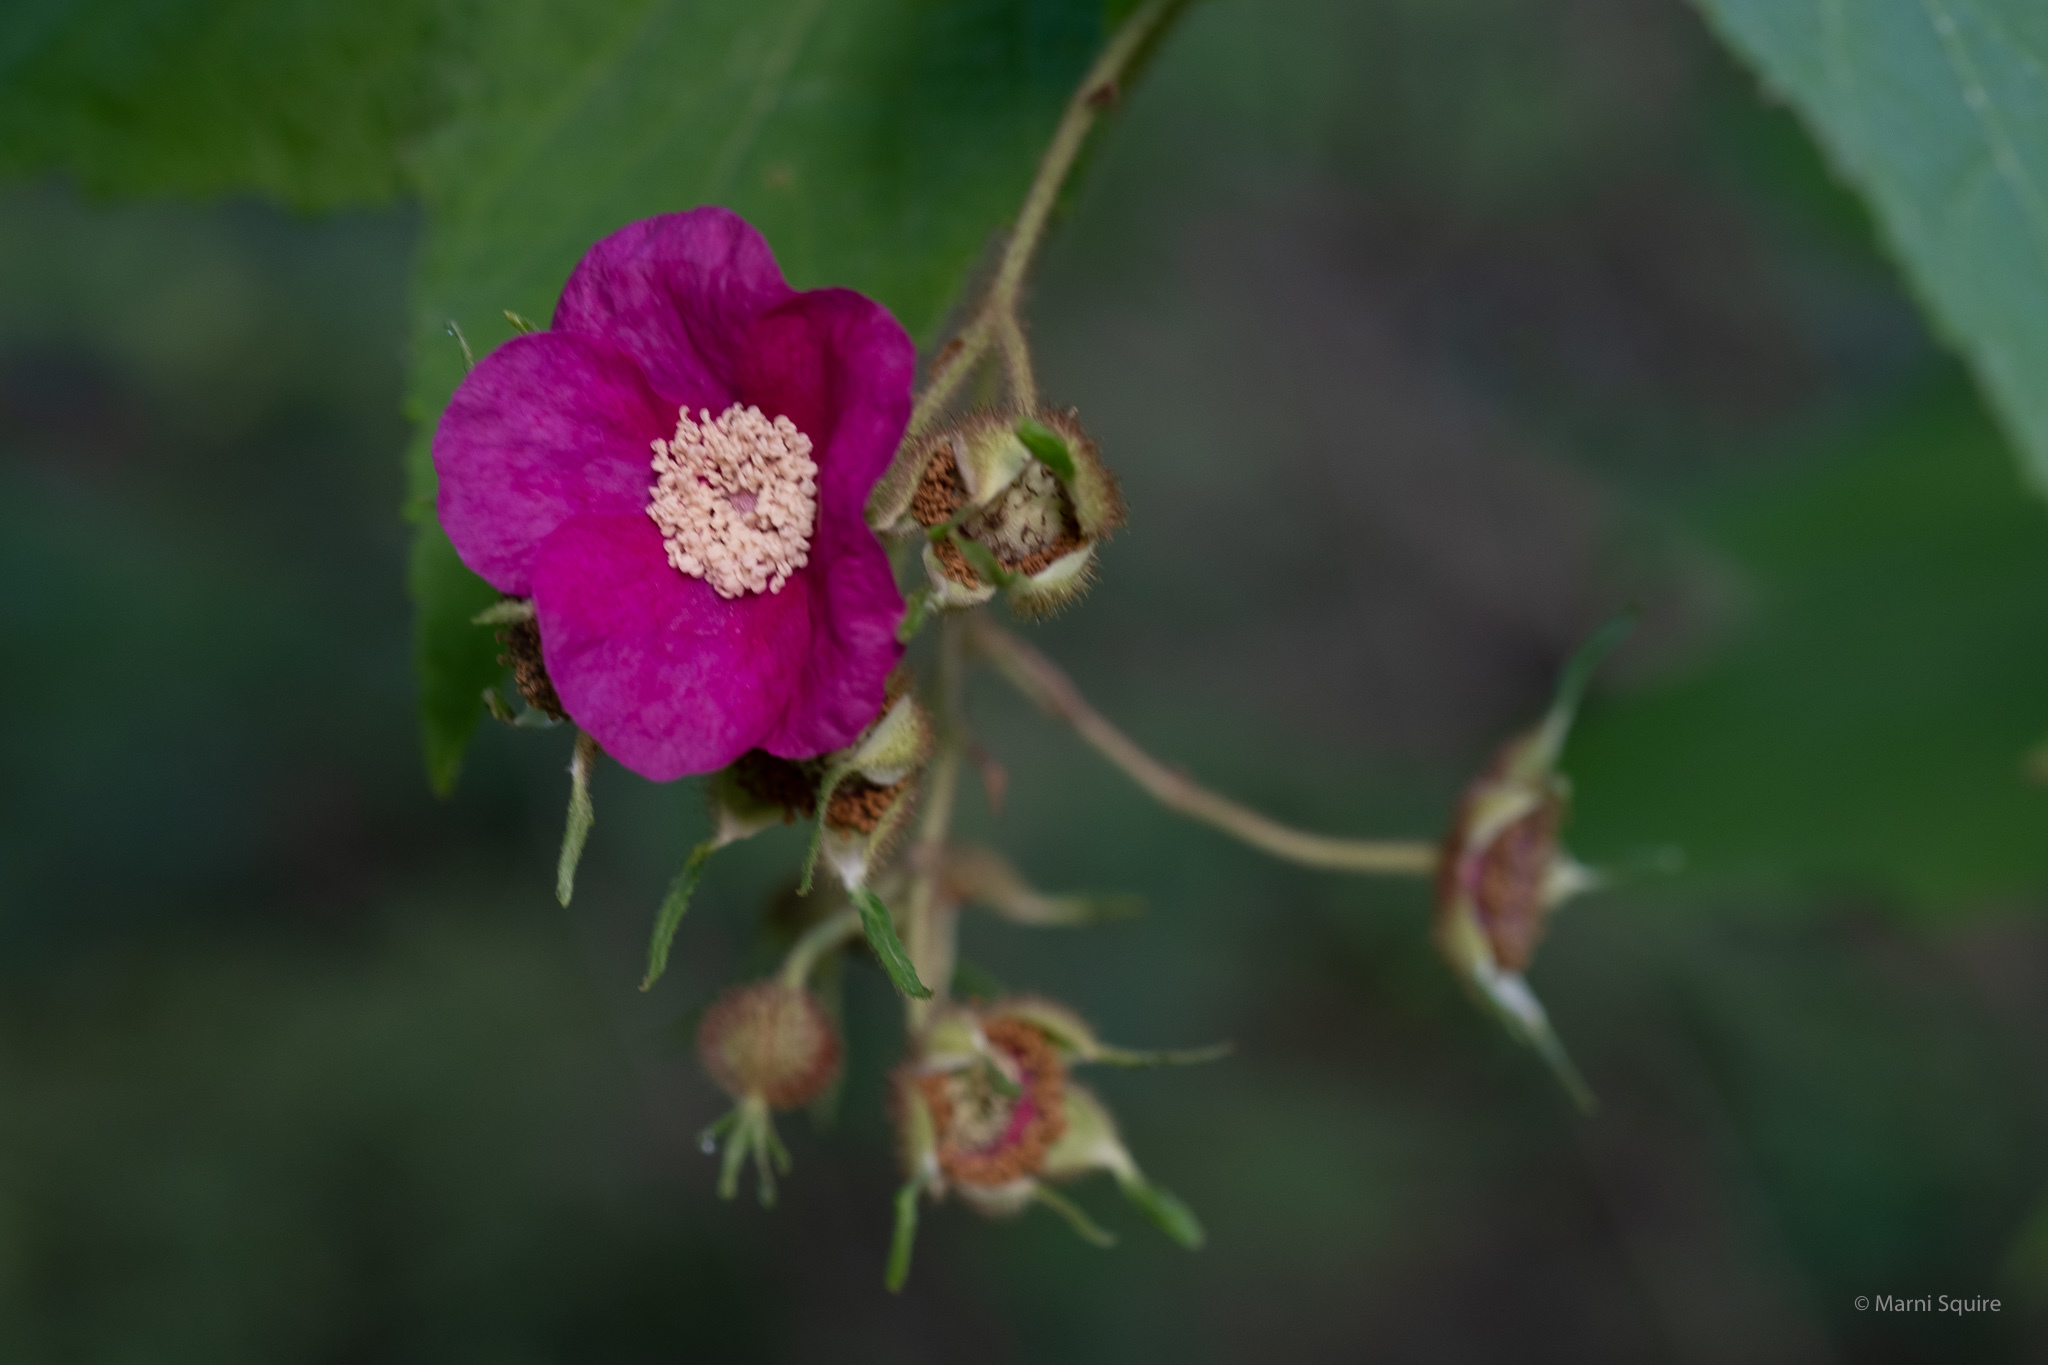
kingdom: Plantae
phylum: Tracheophyta
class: Magnoliopsida
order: Rosales
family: Rosaceae
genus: Rubus
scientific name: Rubus odoratus
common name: Purple-flowered raspberry
